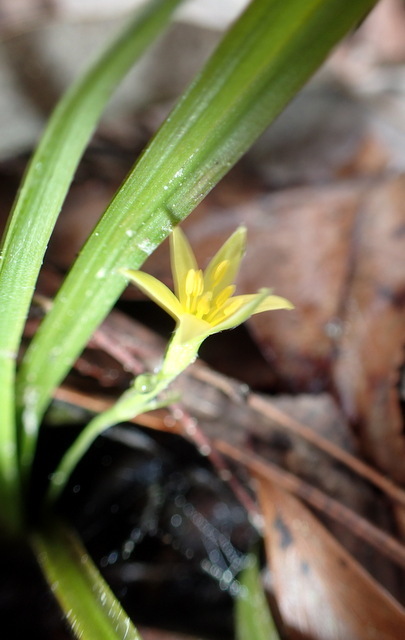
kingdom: Plantae
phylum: Tracheophyta
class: Liliopsida
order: Asparagales
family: Hypoxidaceae
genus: Hypoxis
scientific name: Hypoxis curtissii
